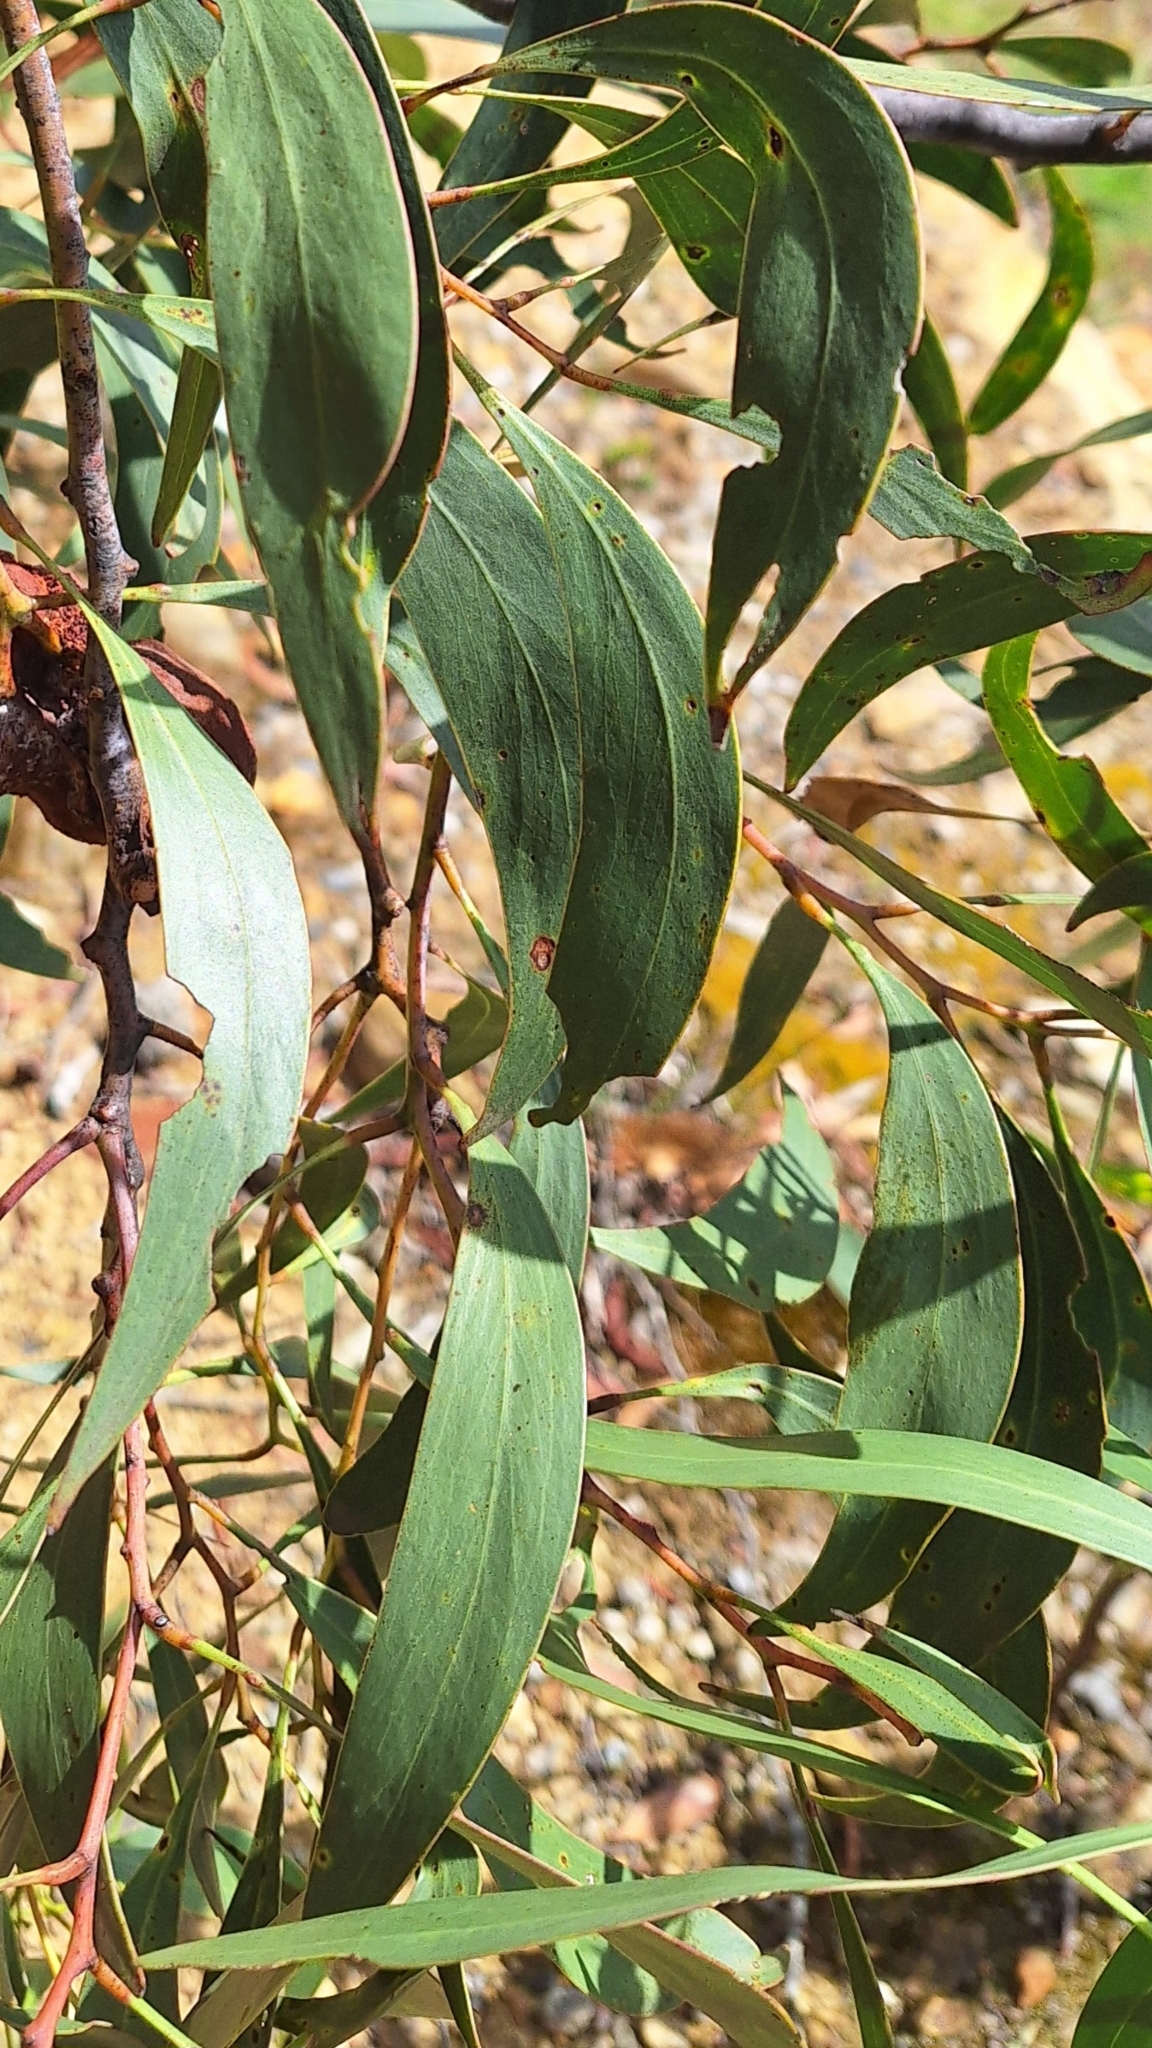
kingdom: Plantae
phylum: Tracheophyta
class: Magnoliopsida
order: Fabales
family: Fabaceae
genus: Acacia
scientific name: Acacia pycnantha
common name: Golden wattle
